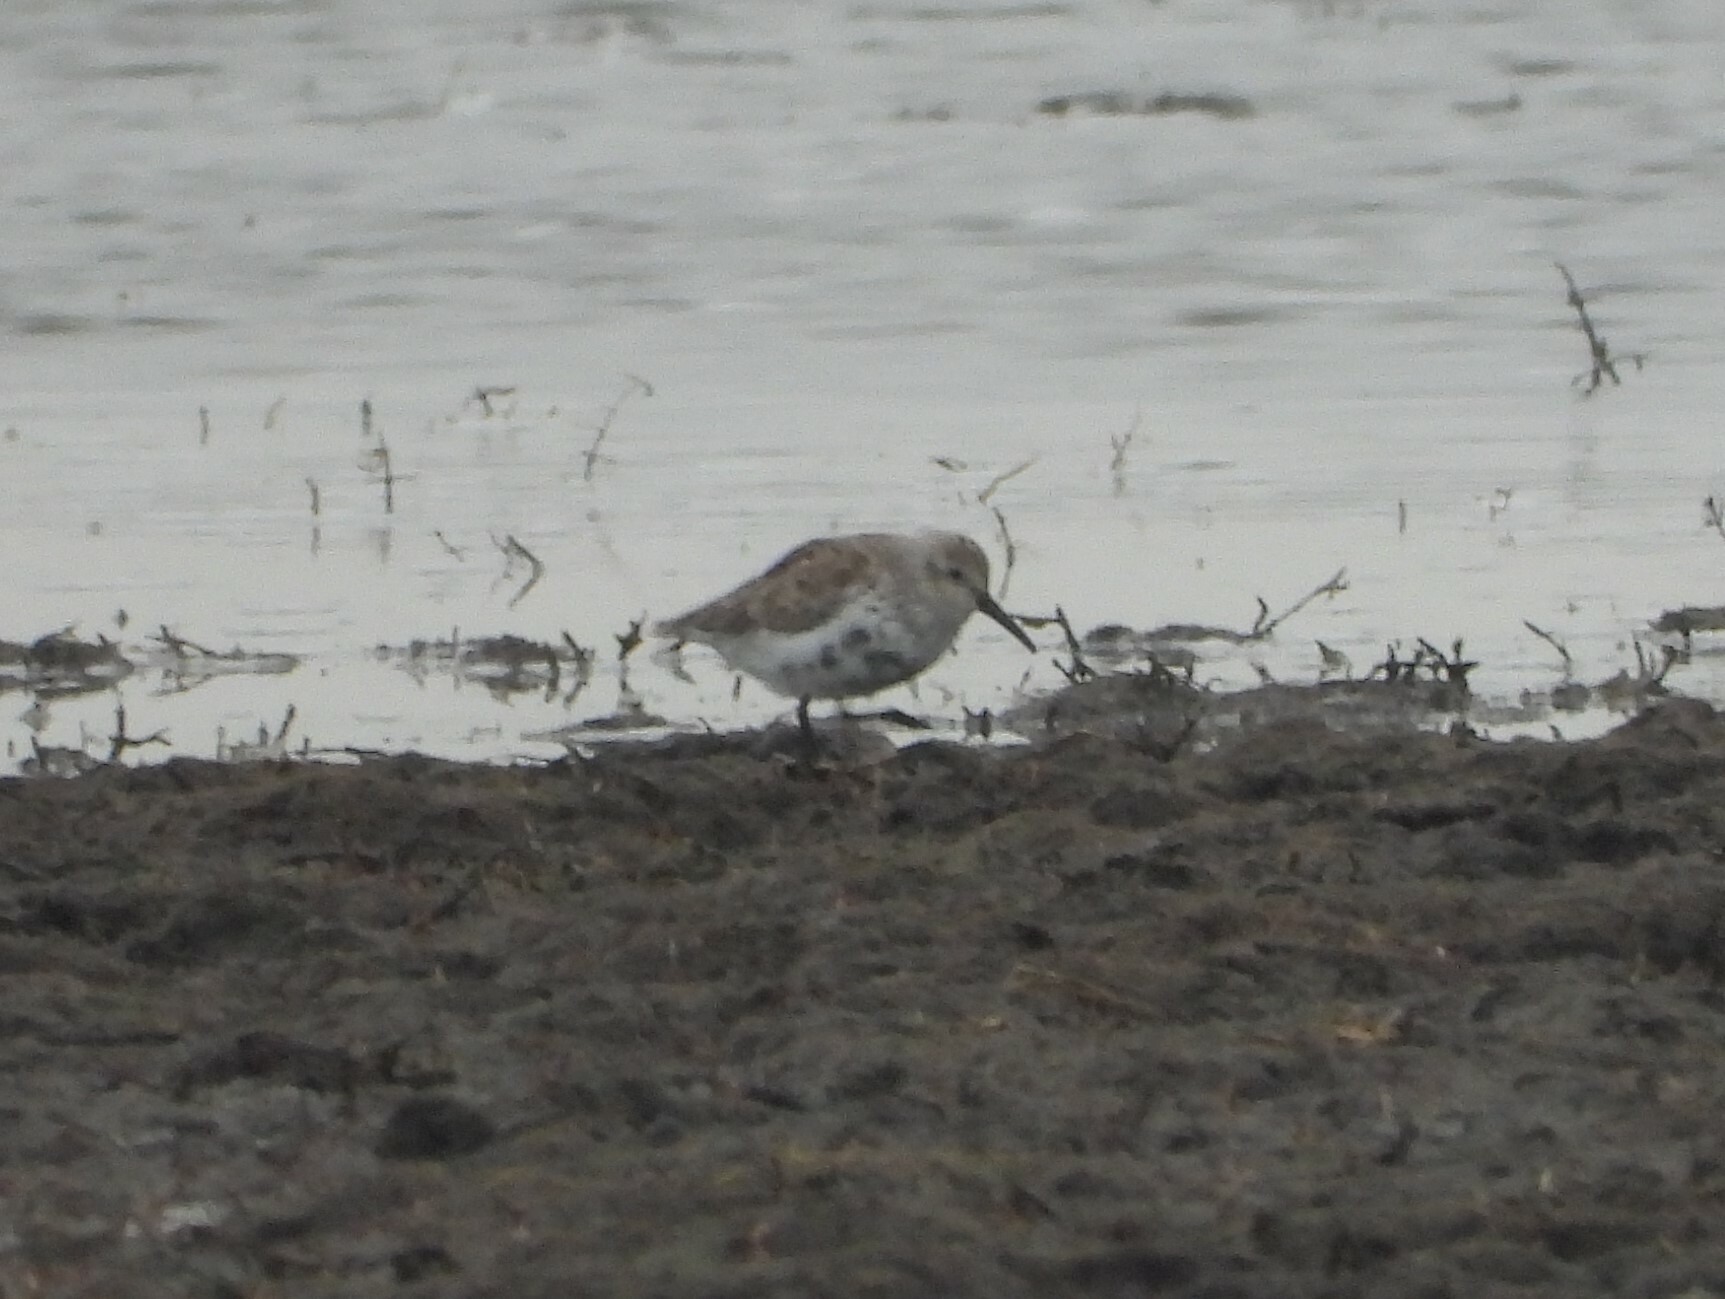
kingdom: Animalia
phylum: Chordata
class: Aves
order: Charadriiformes
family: Scolopacidae
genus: Calidris
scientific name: Calidris alpina
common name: Dunlin
